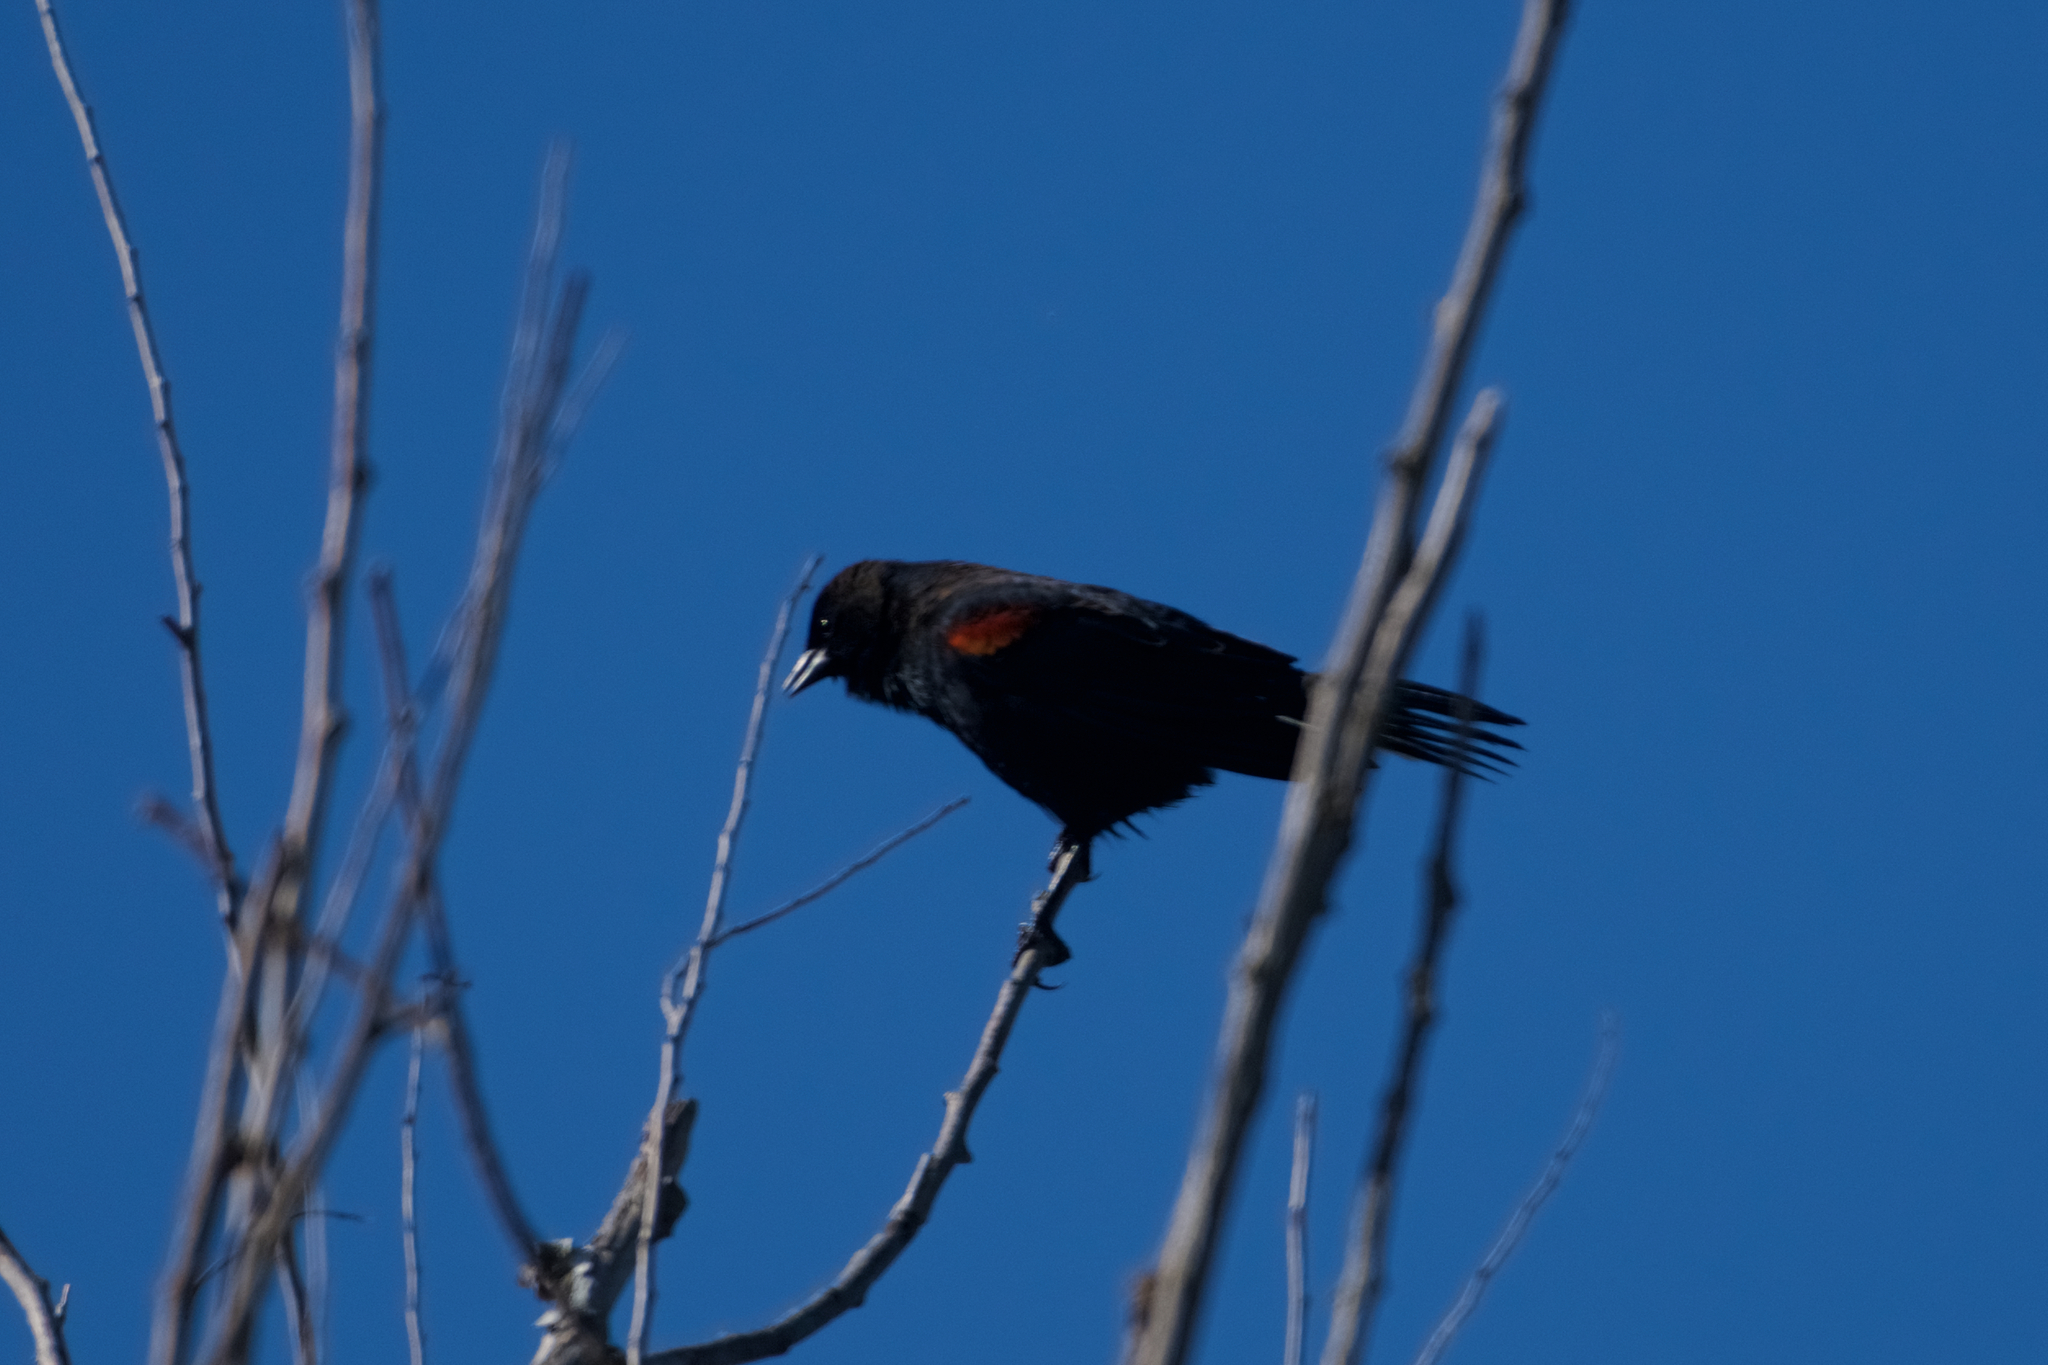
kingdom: Animalia
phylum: Chordata
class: Aves
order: Passeriformes
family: Icteridae
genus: Agelaius
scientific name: Agelaius phoeniceus
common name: Red-winged blackbird
